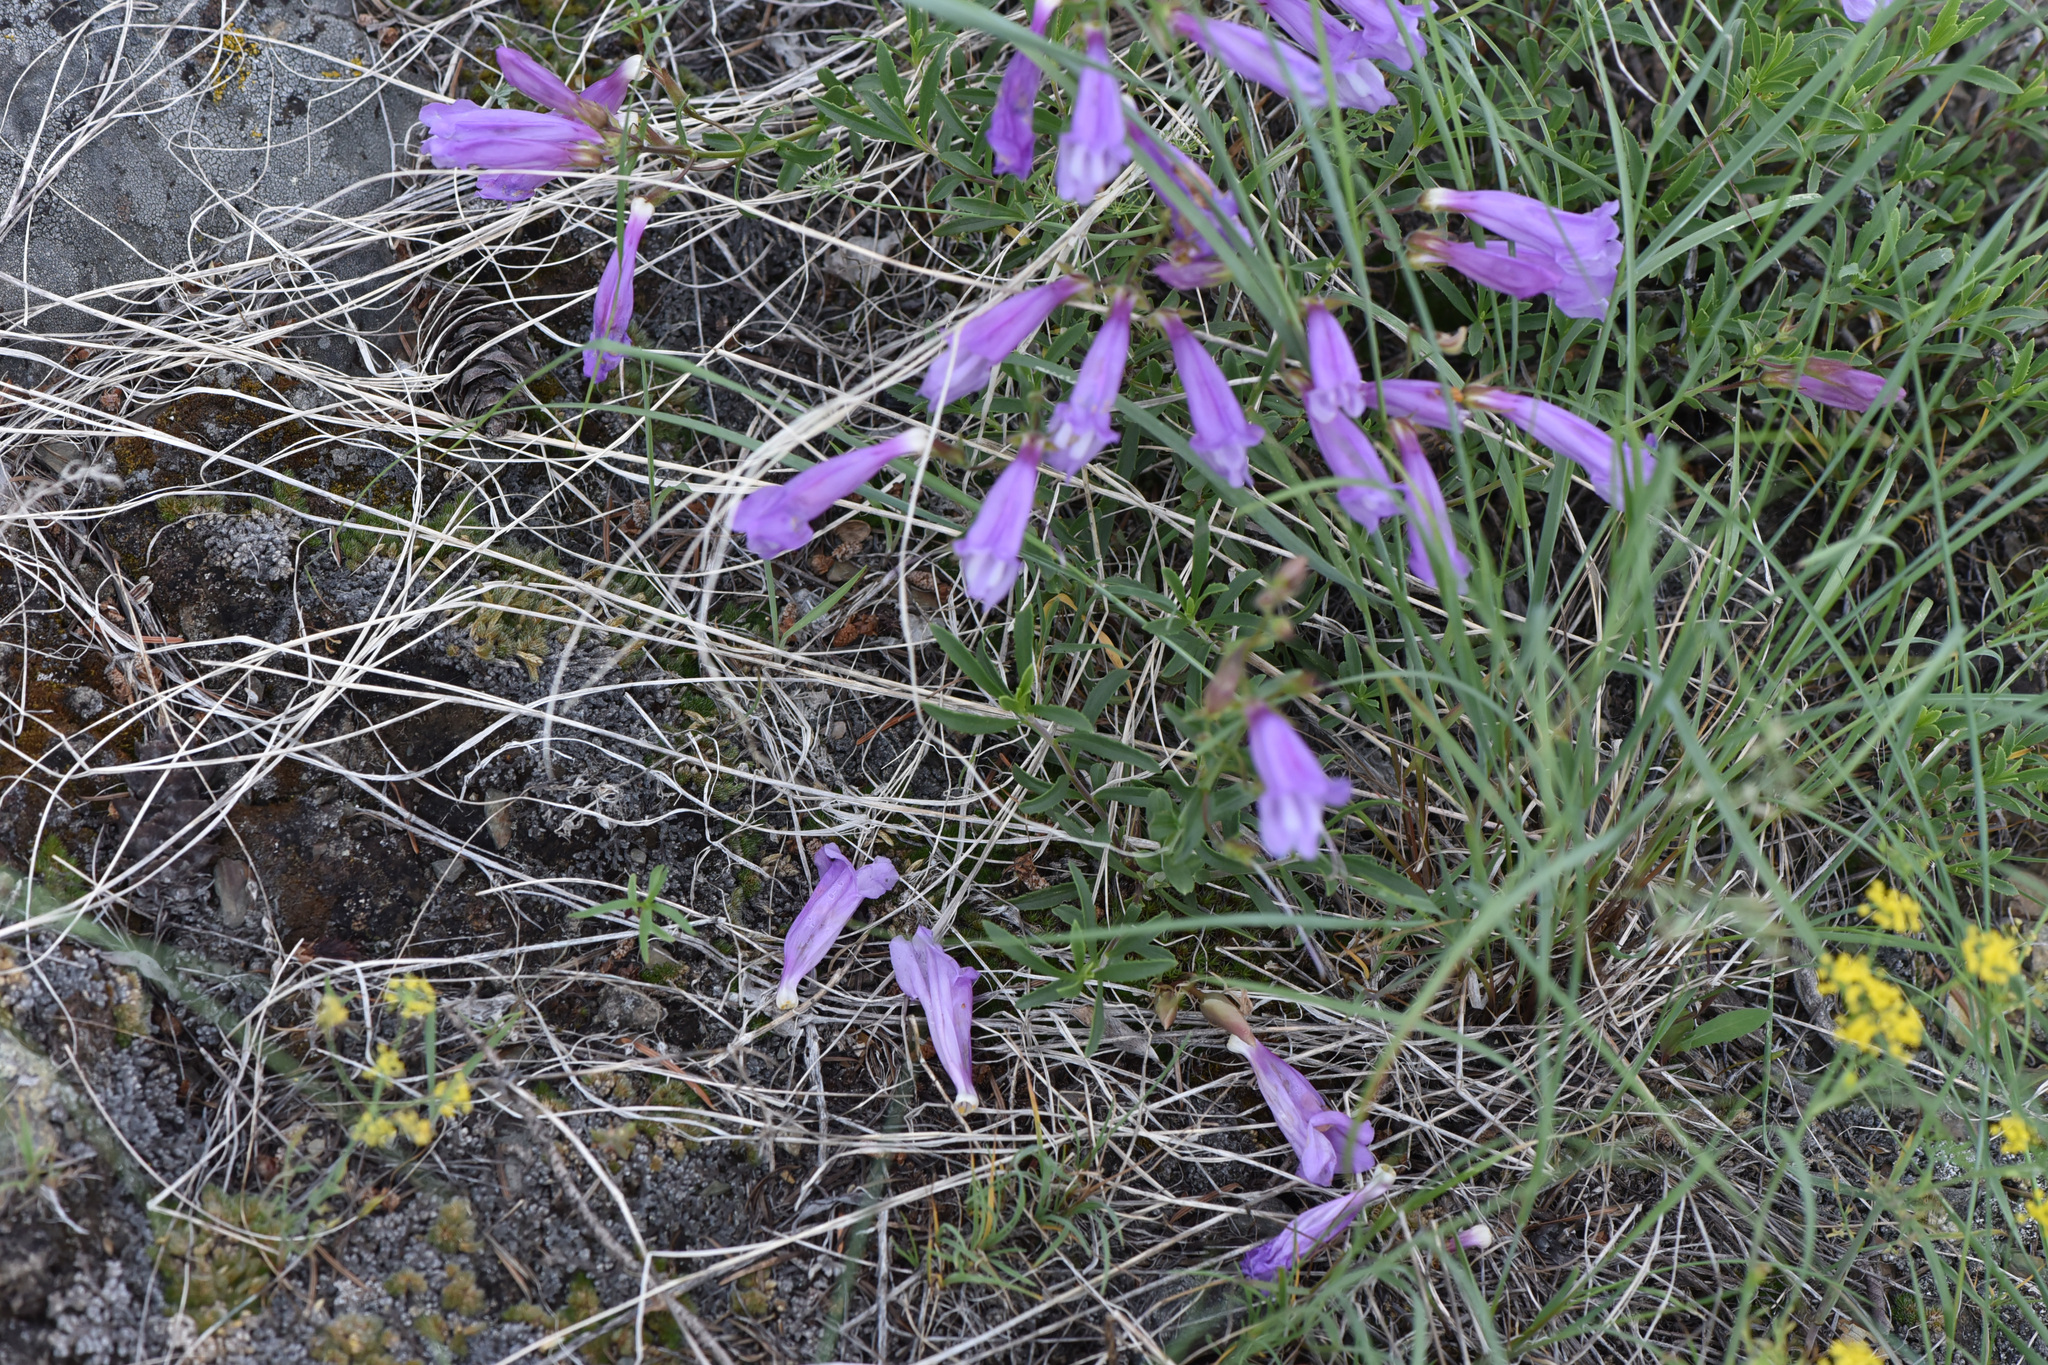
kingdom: Plantae
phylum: Tracheophyta
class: Magnoliopsida
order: Lamiales
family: Plantaginaceae
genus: Penstemon
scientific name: Penstemon fruticosus
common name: Bush penstemon
